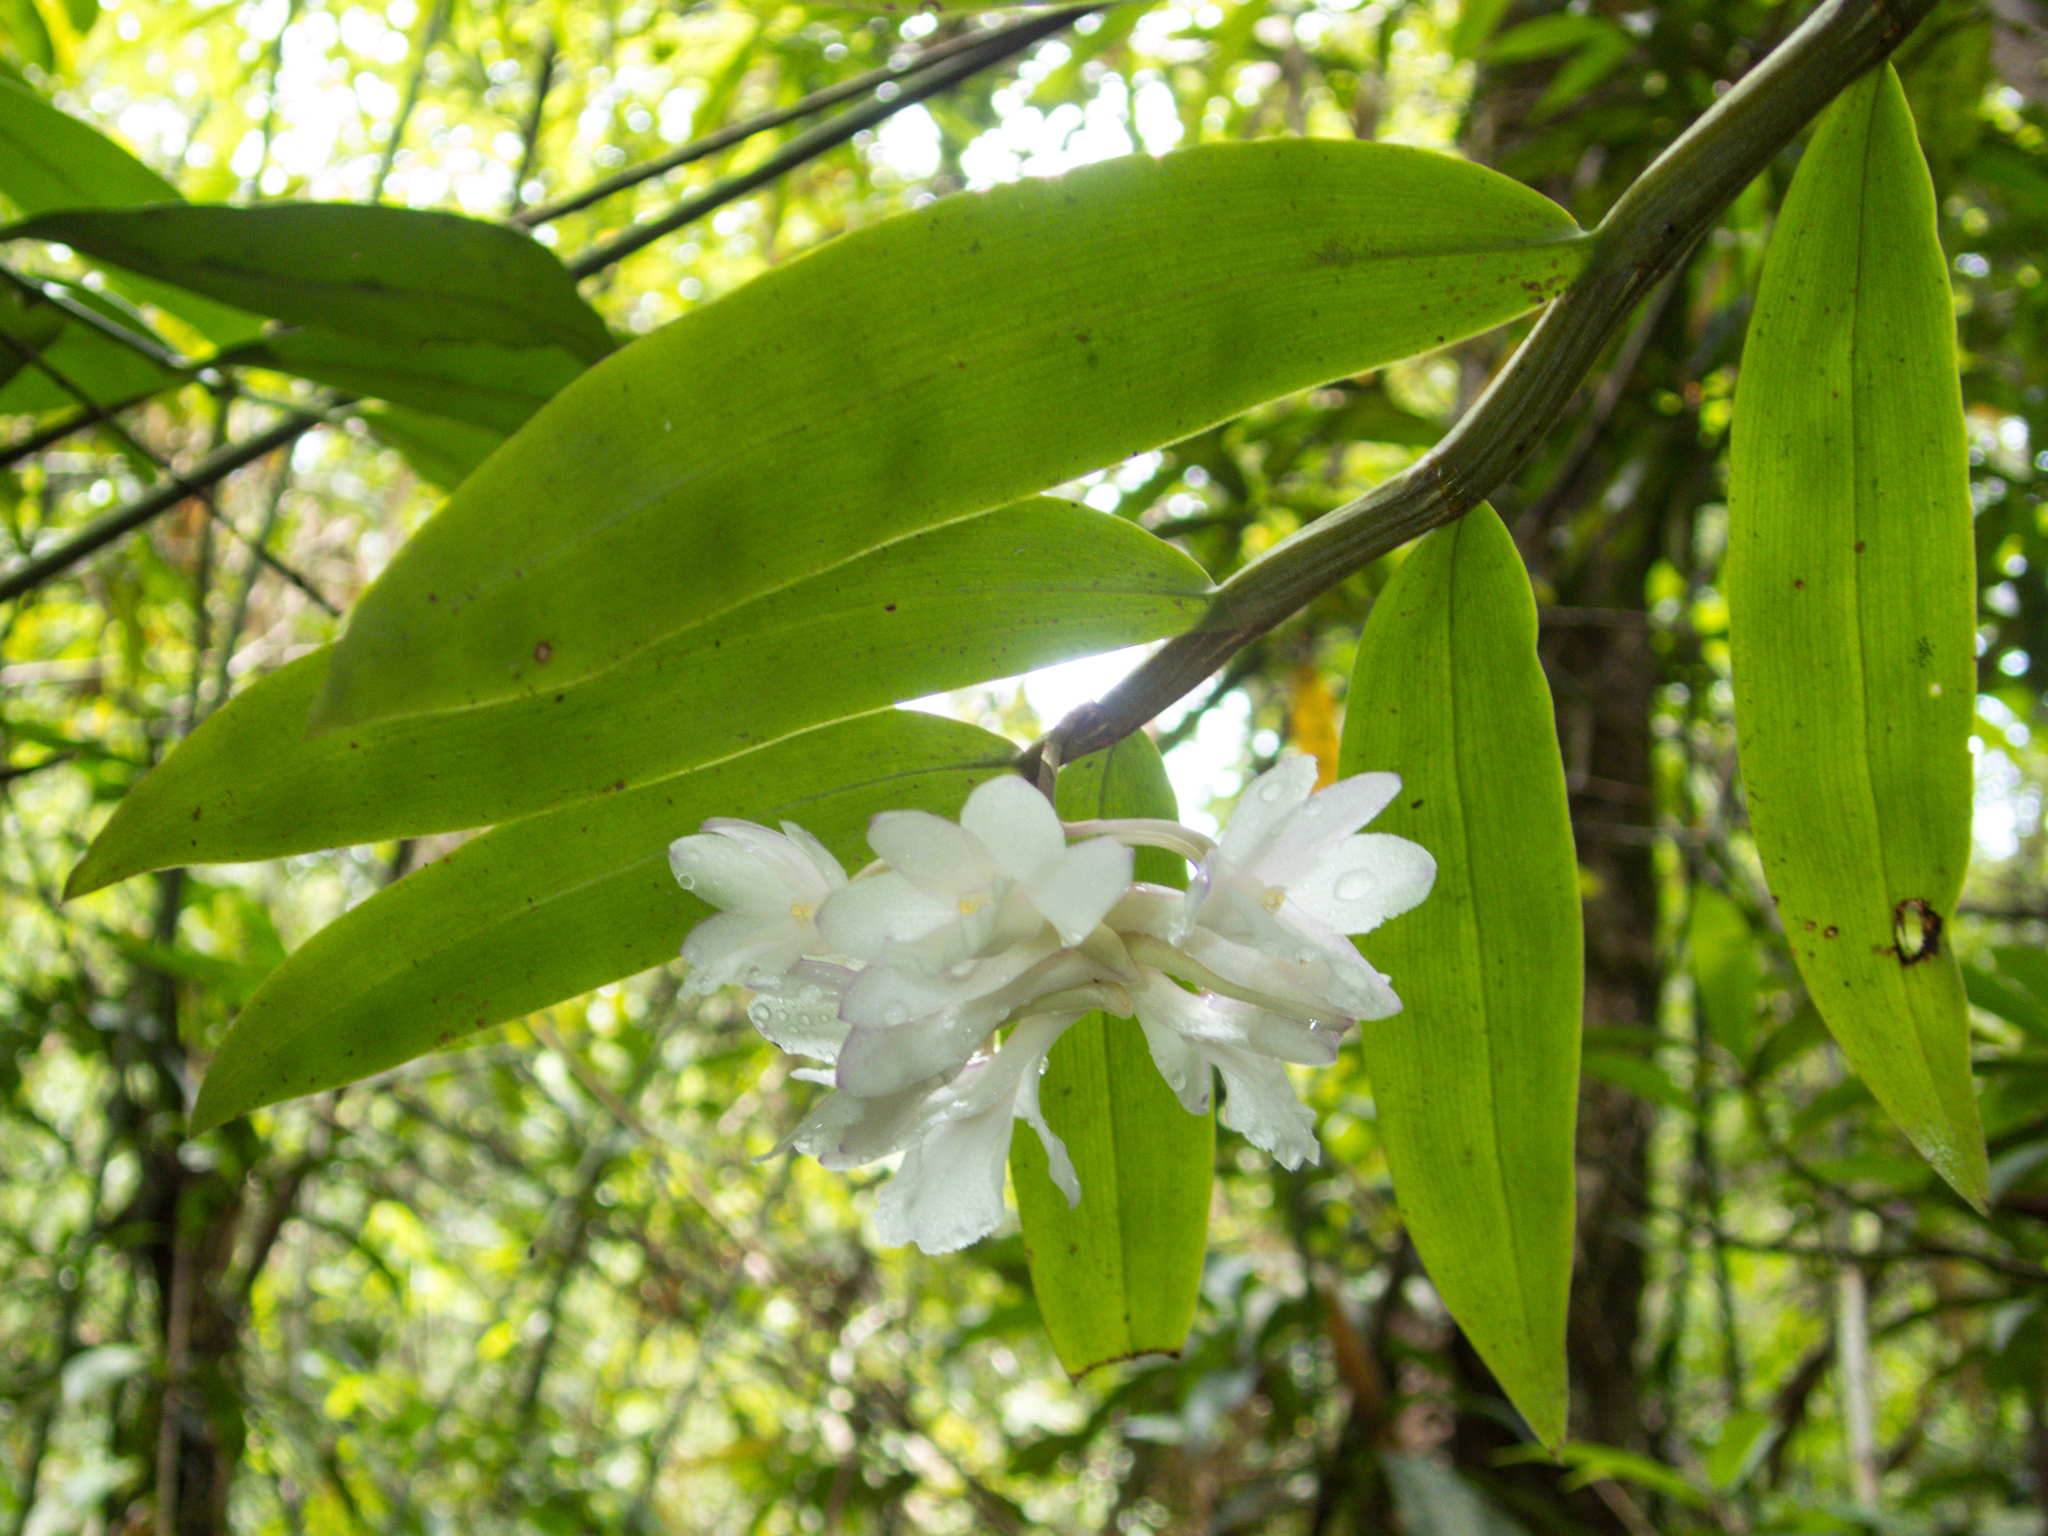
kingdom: Plantae
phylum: Tracheophyta
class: Liliopsida
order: Asparagales
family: Orchidaceae
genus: Dendrobium
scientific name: Dendrobium cumulatum
